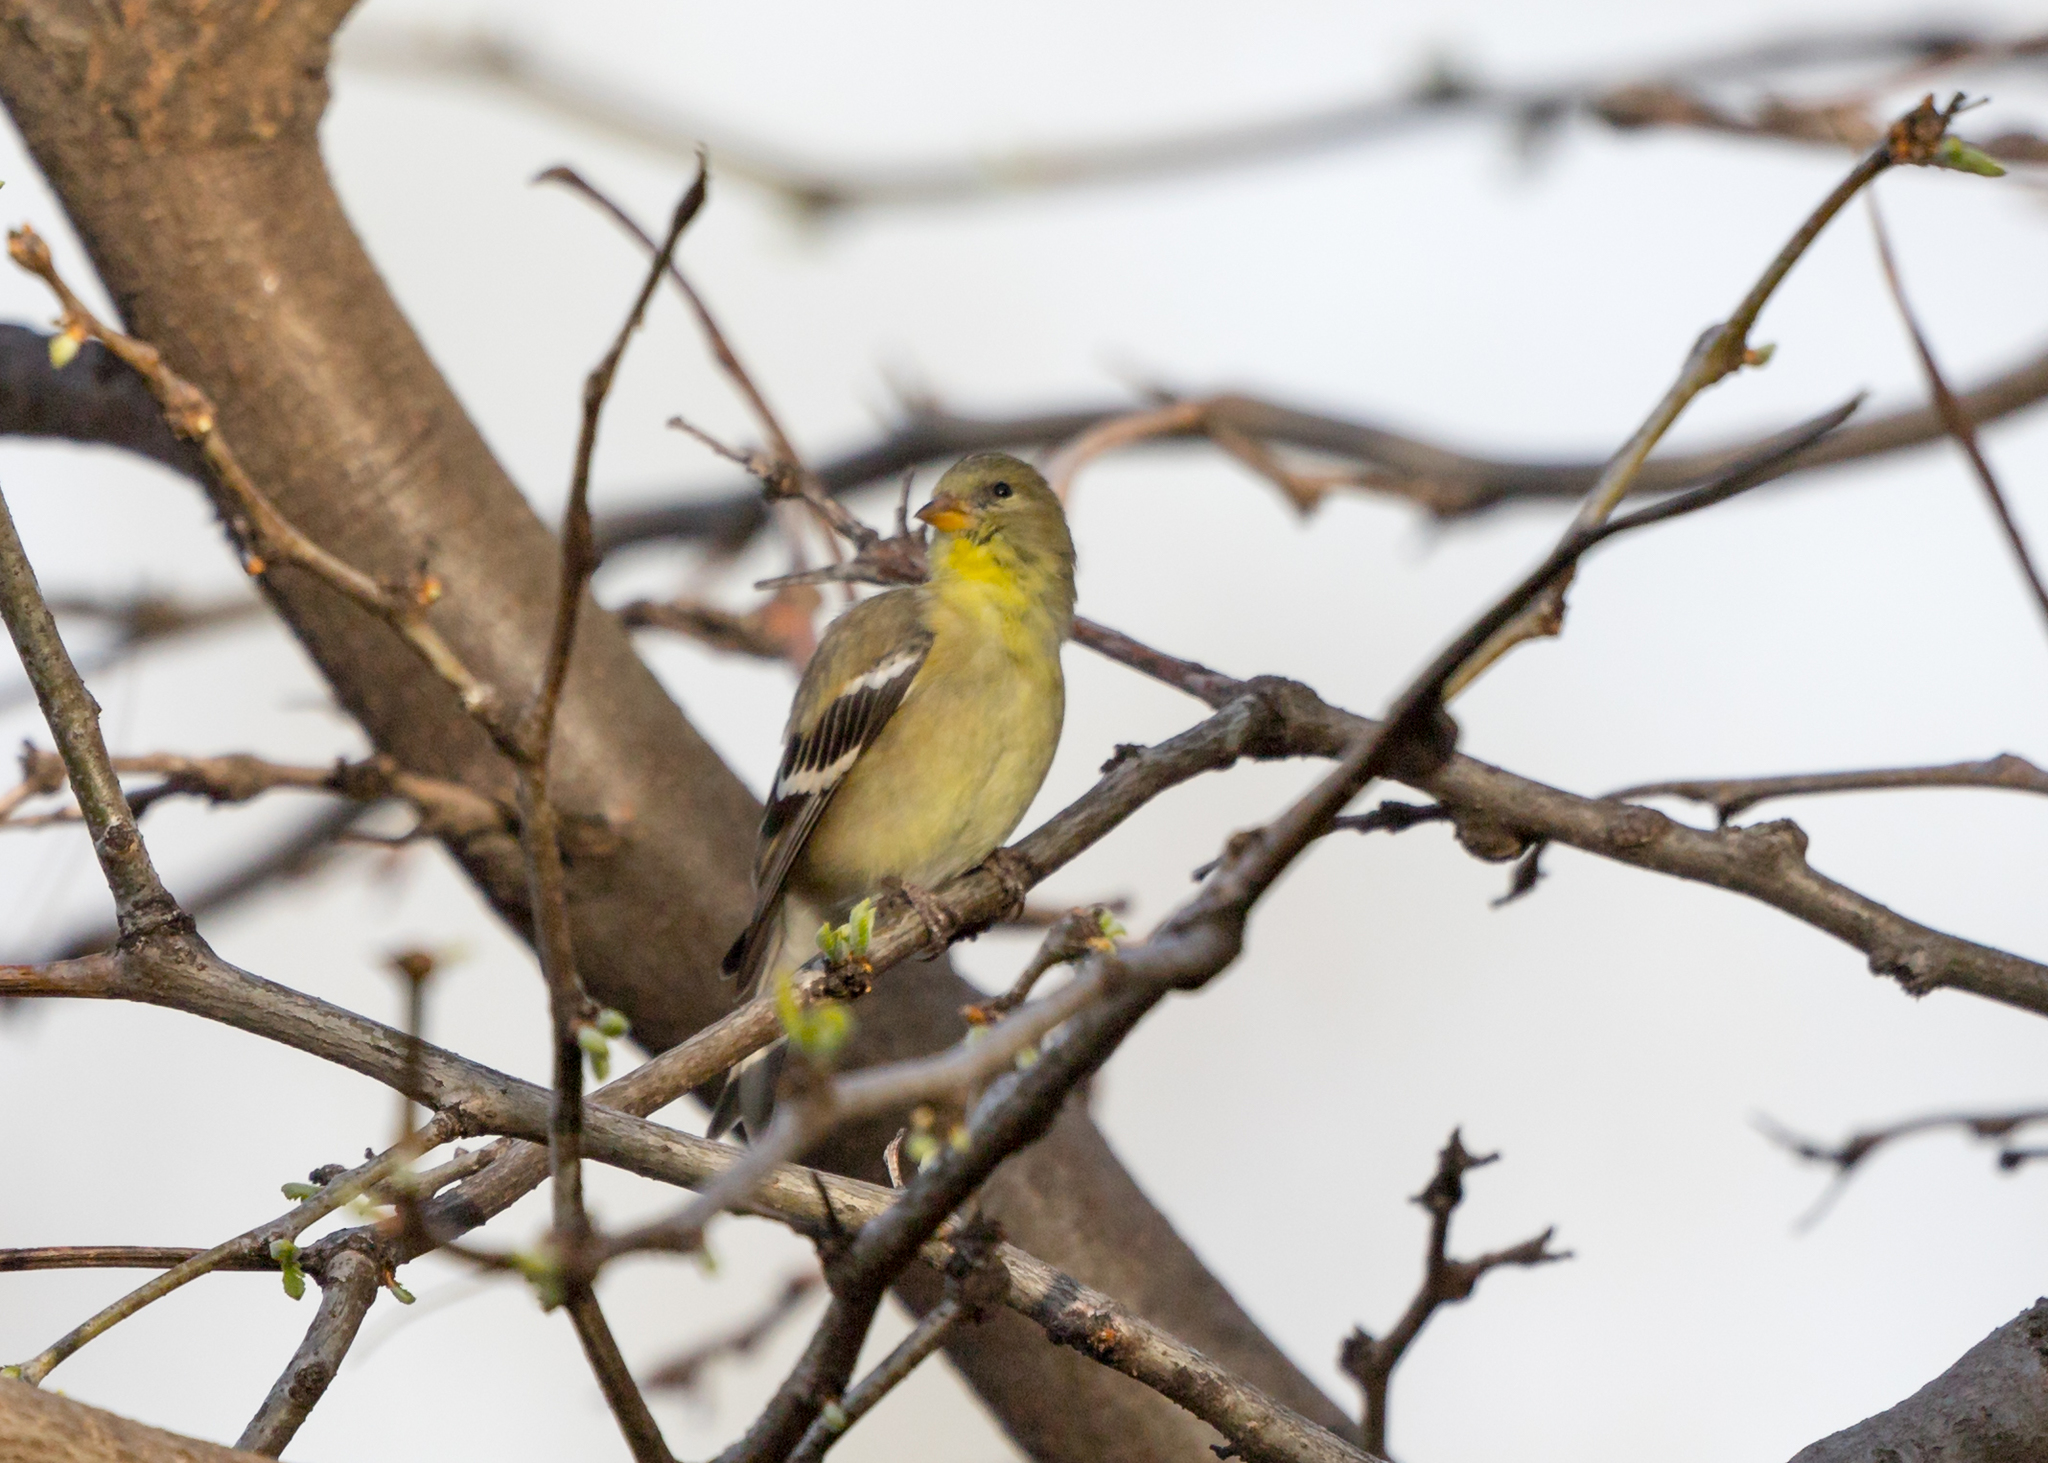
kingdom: Animalia
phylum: Chordata
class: Aves
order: Passeriformes
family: Fringillidae
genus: Spinus
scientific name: Spinus tristis
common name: American goldfinch
